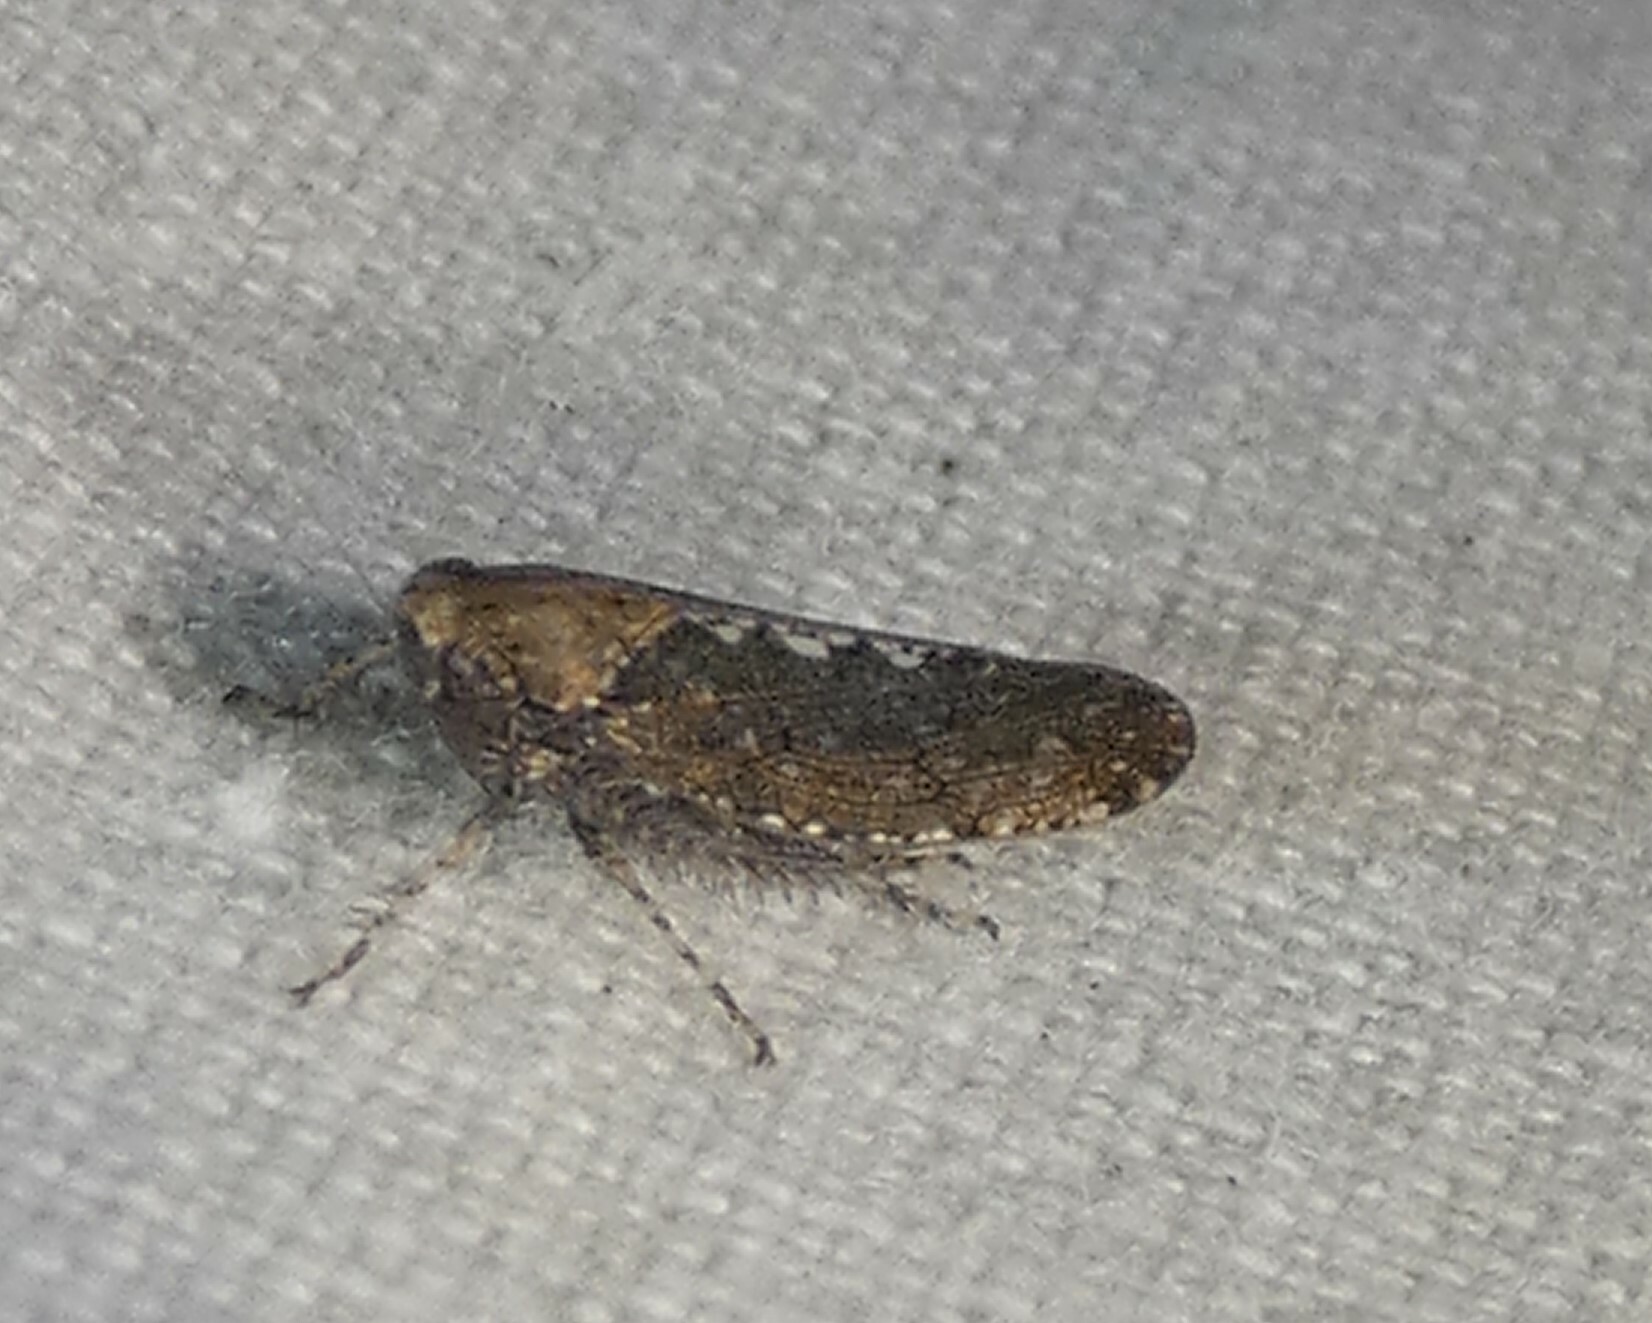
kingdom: Animalia
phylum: Arthropoda
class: Insecta
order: Hemiptera
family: Cicadellidae
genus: Excultanus
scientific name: Excultanus excultus
